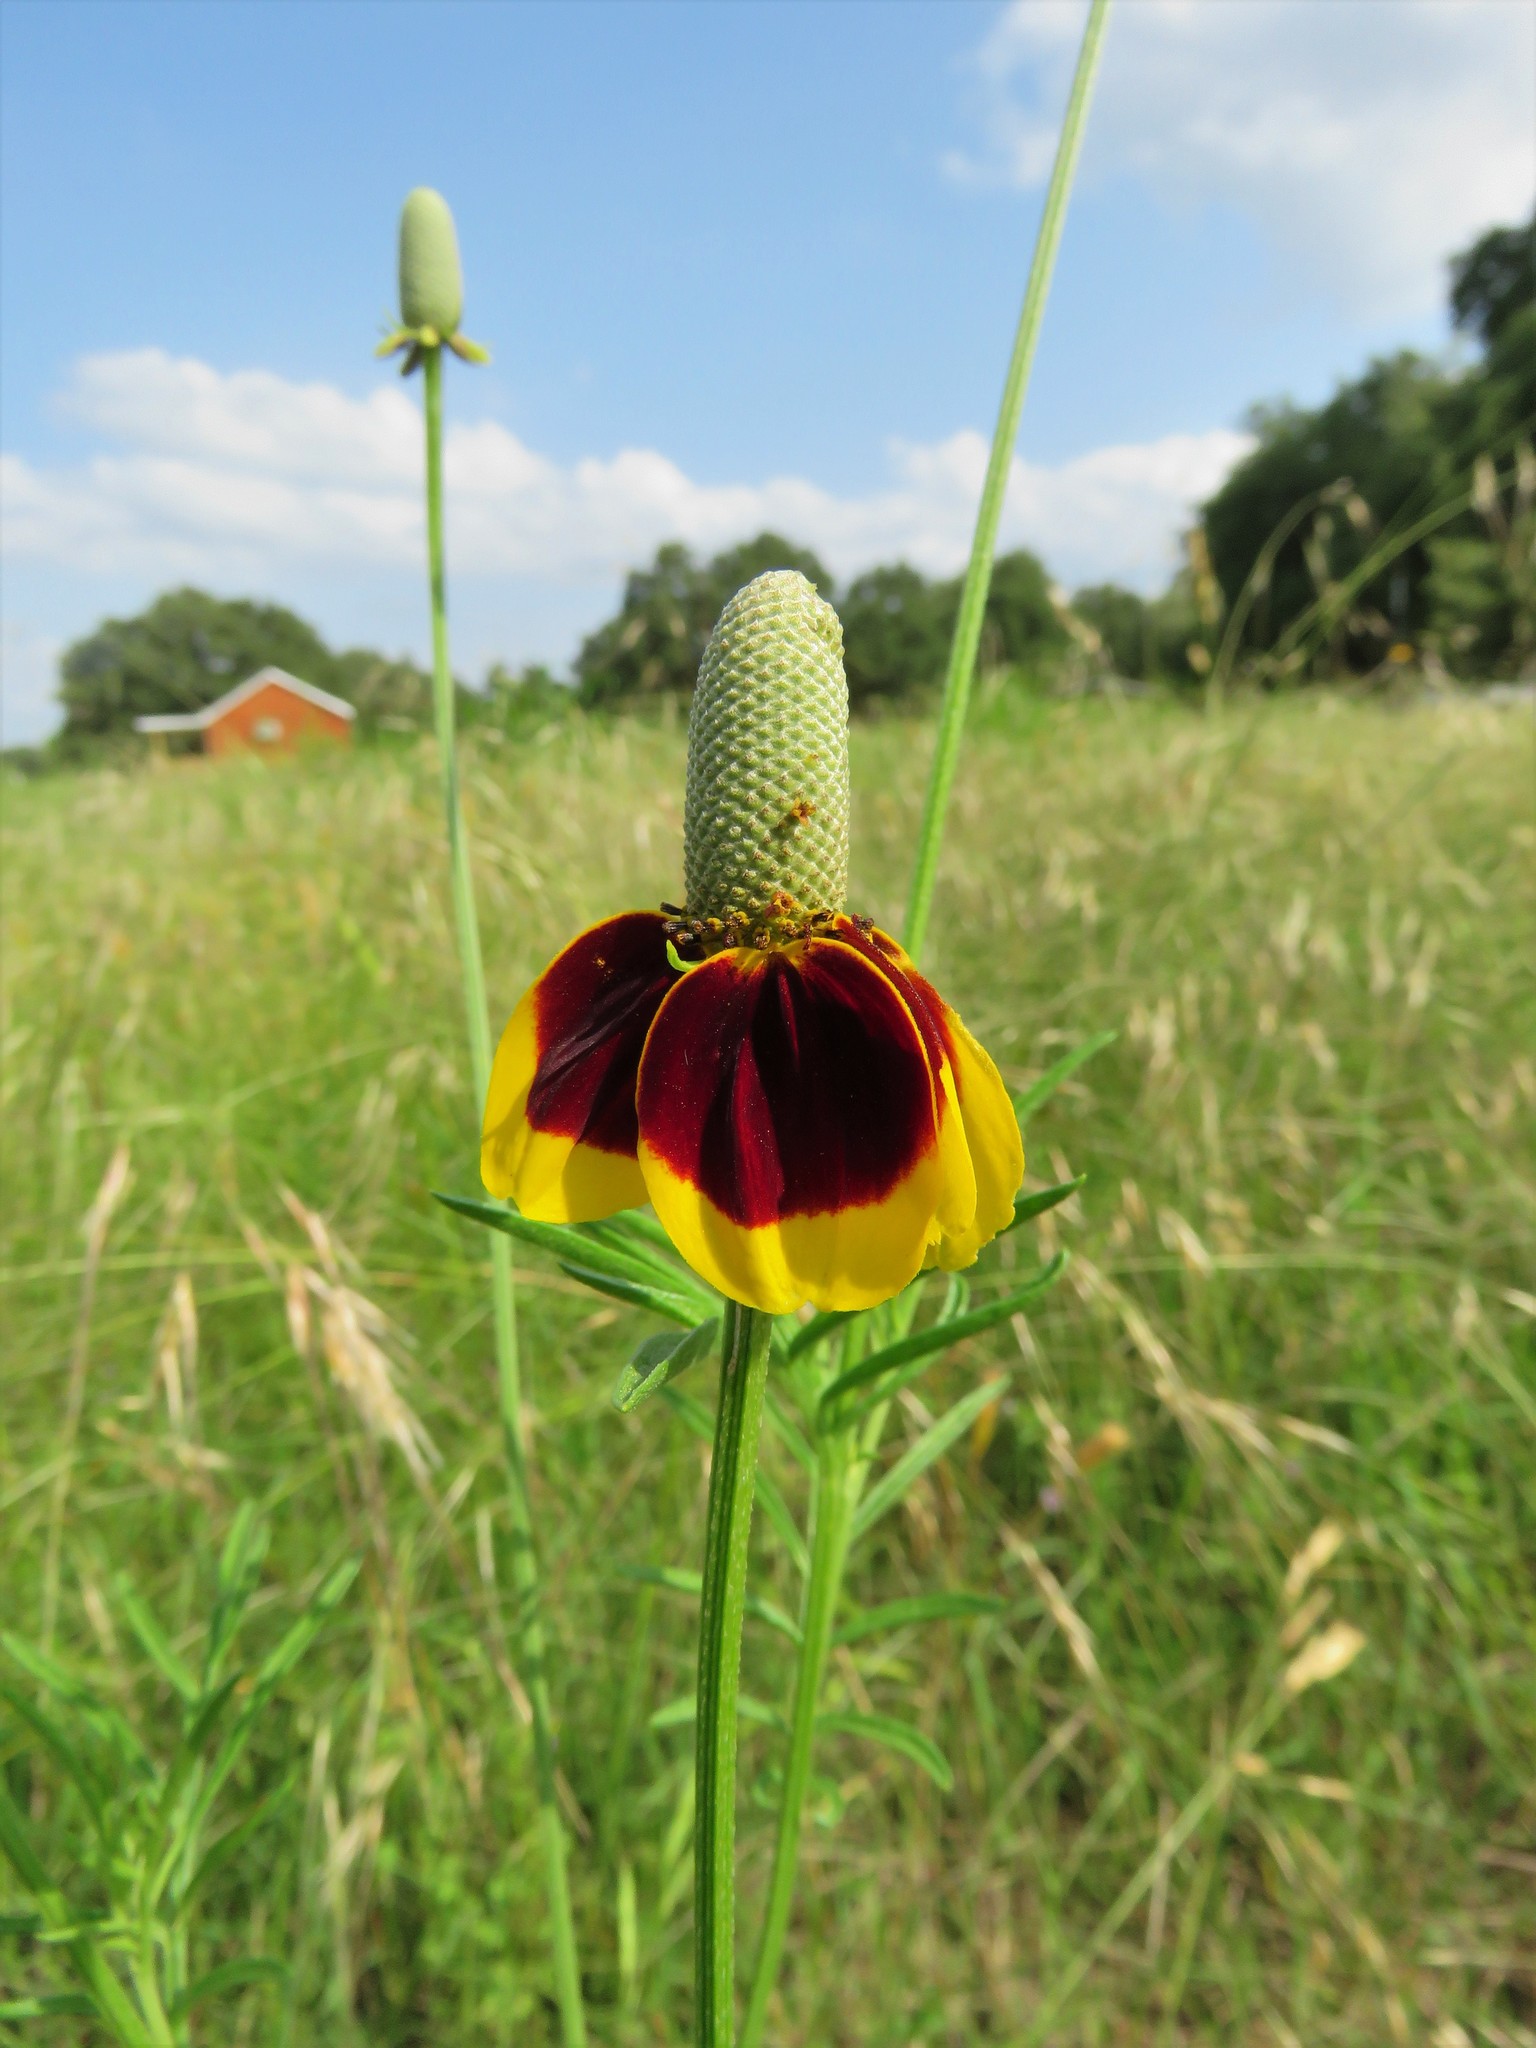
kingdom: Plantae
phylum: Tracheophyta
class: Magnoliopsida
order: Asterales
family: Asteraceae
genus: Ratibida
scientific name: Ratibida columnifera
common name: Prairie coneflower
